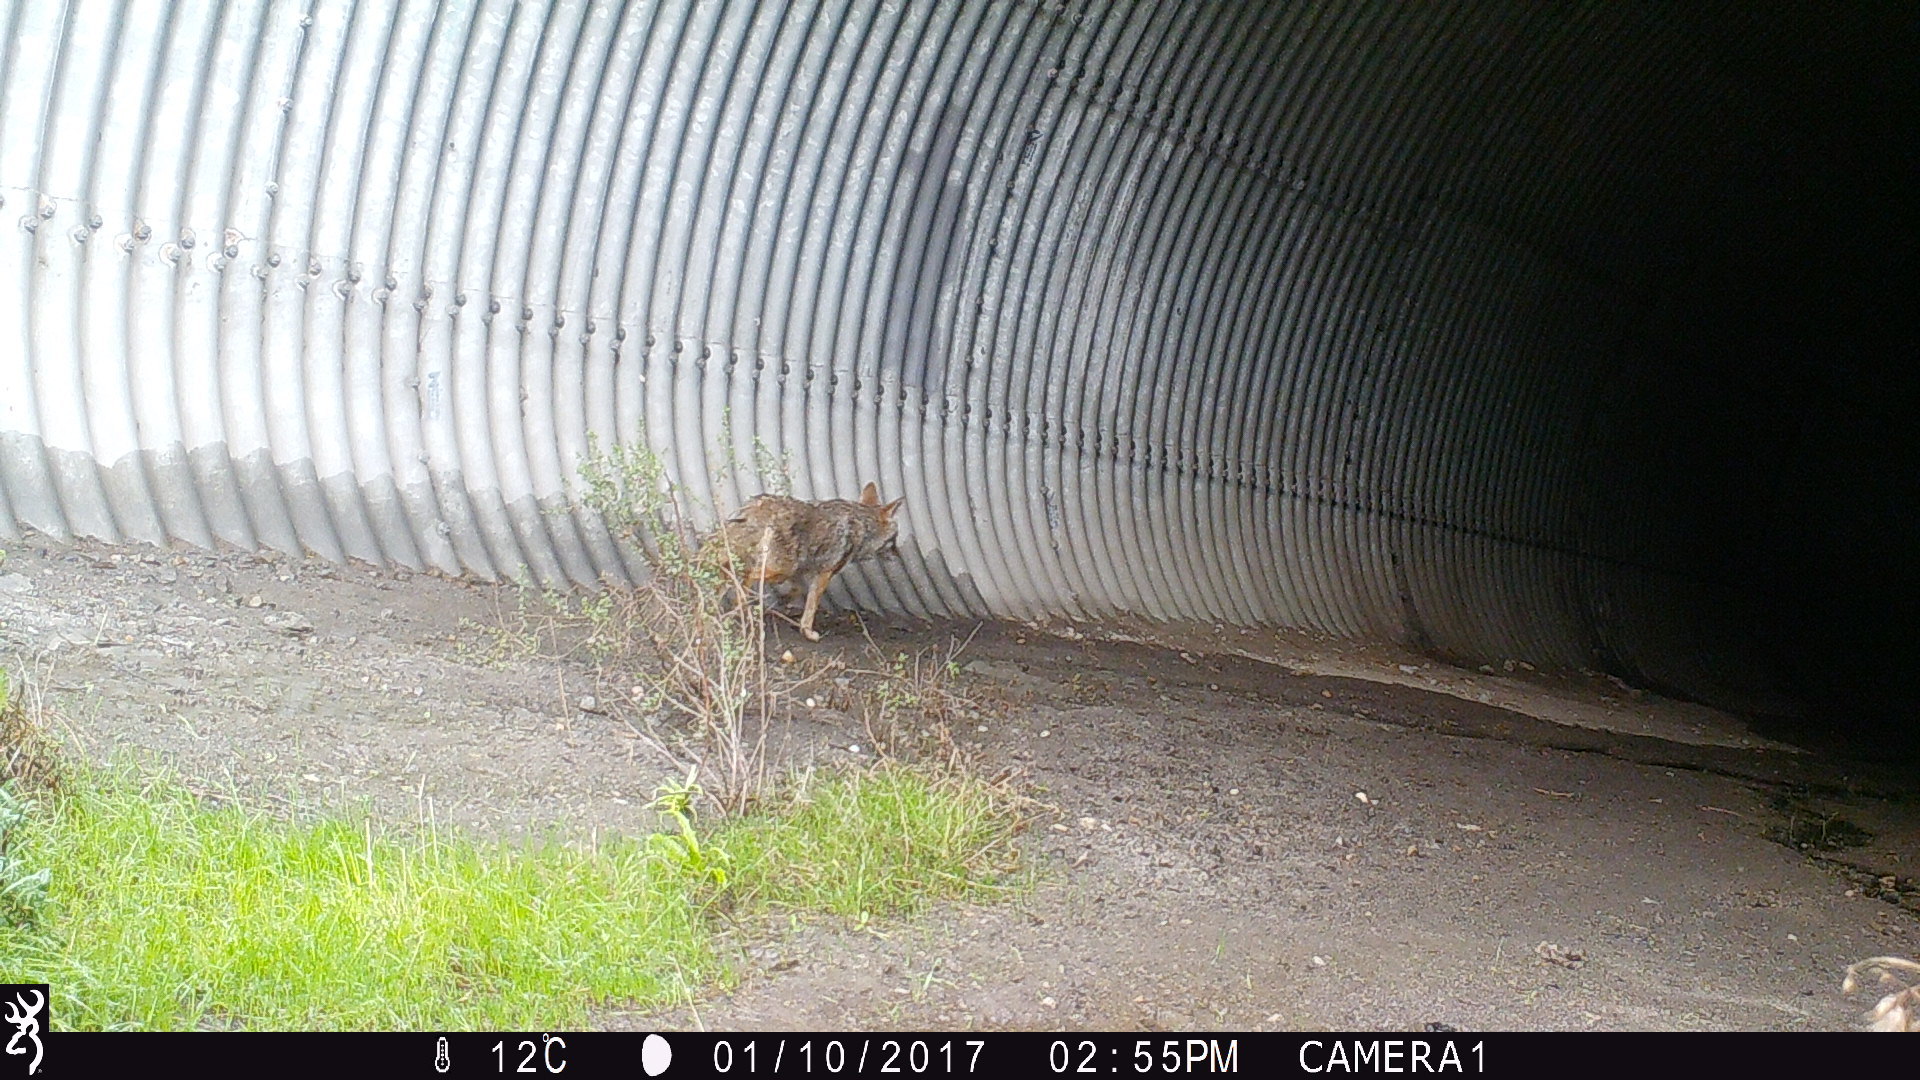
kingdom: Animalia
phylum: Chordata
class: Mammalia
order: Carnivora
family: Canidae
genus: Canis
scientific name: Canis latrans
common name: Coyote
